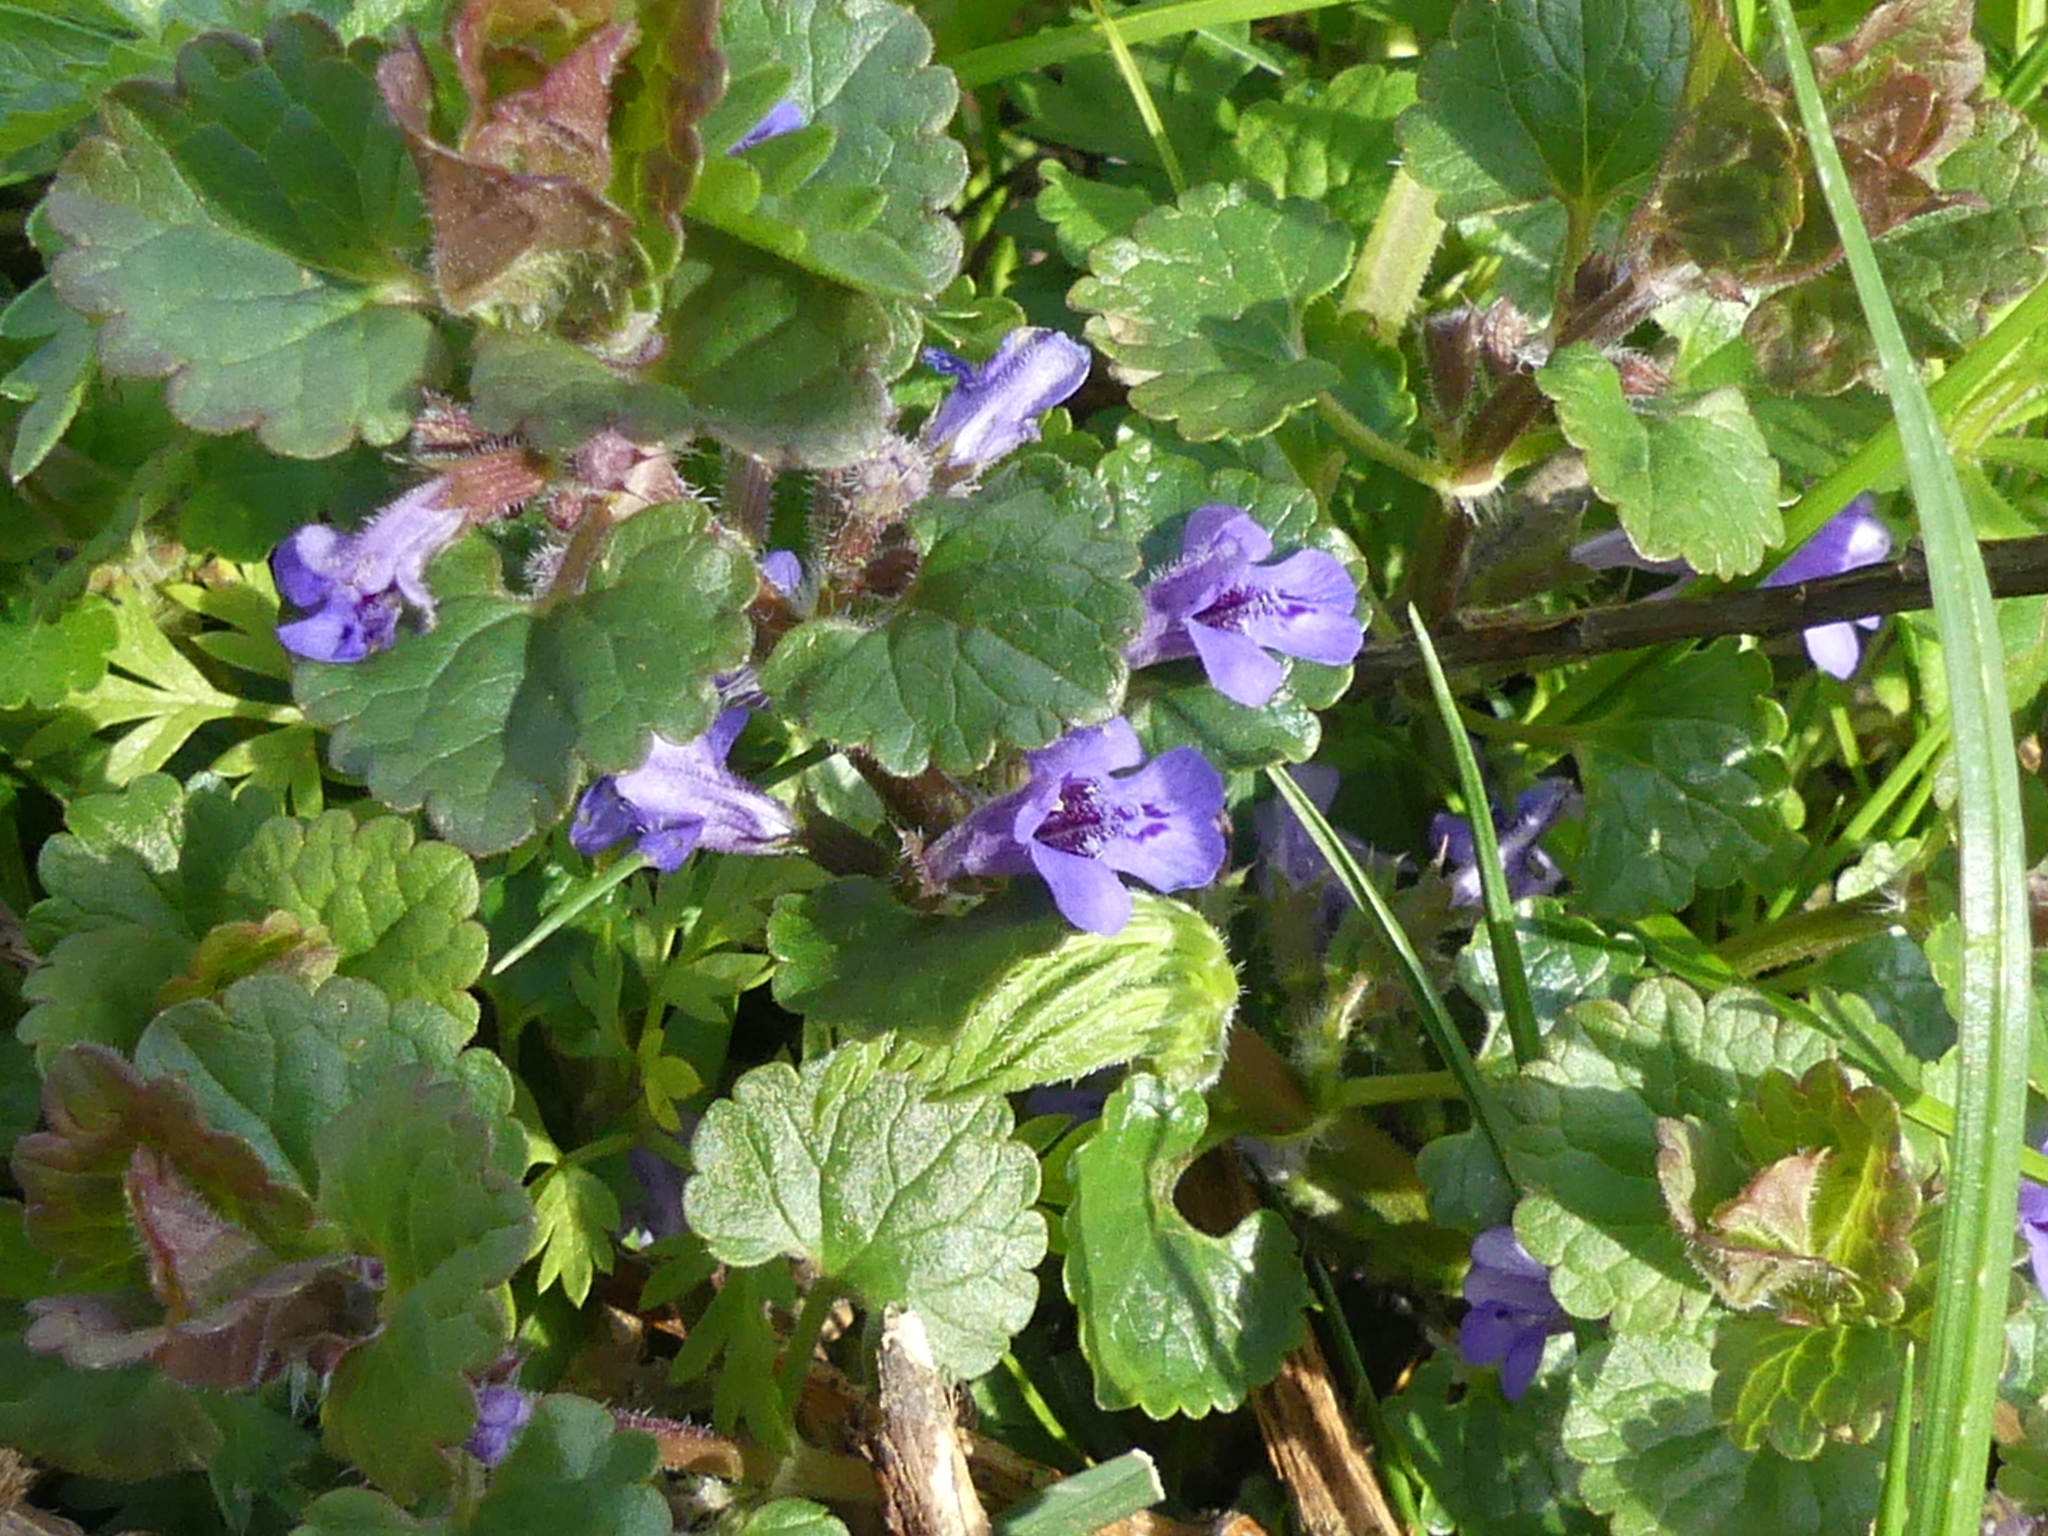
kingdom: Plantae
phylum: Tracheophyta
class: Magnoliopsida
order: Lamiales
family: Lamiaceae
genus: Glechoma
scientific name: Glechoma hederacea
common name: Ground ivy
